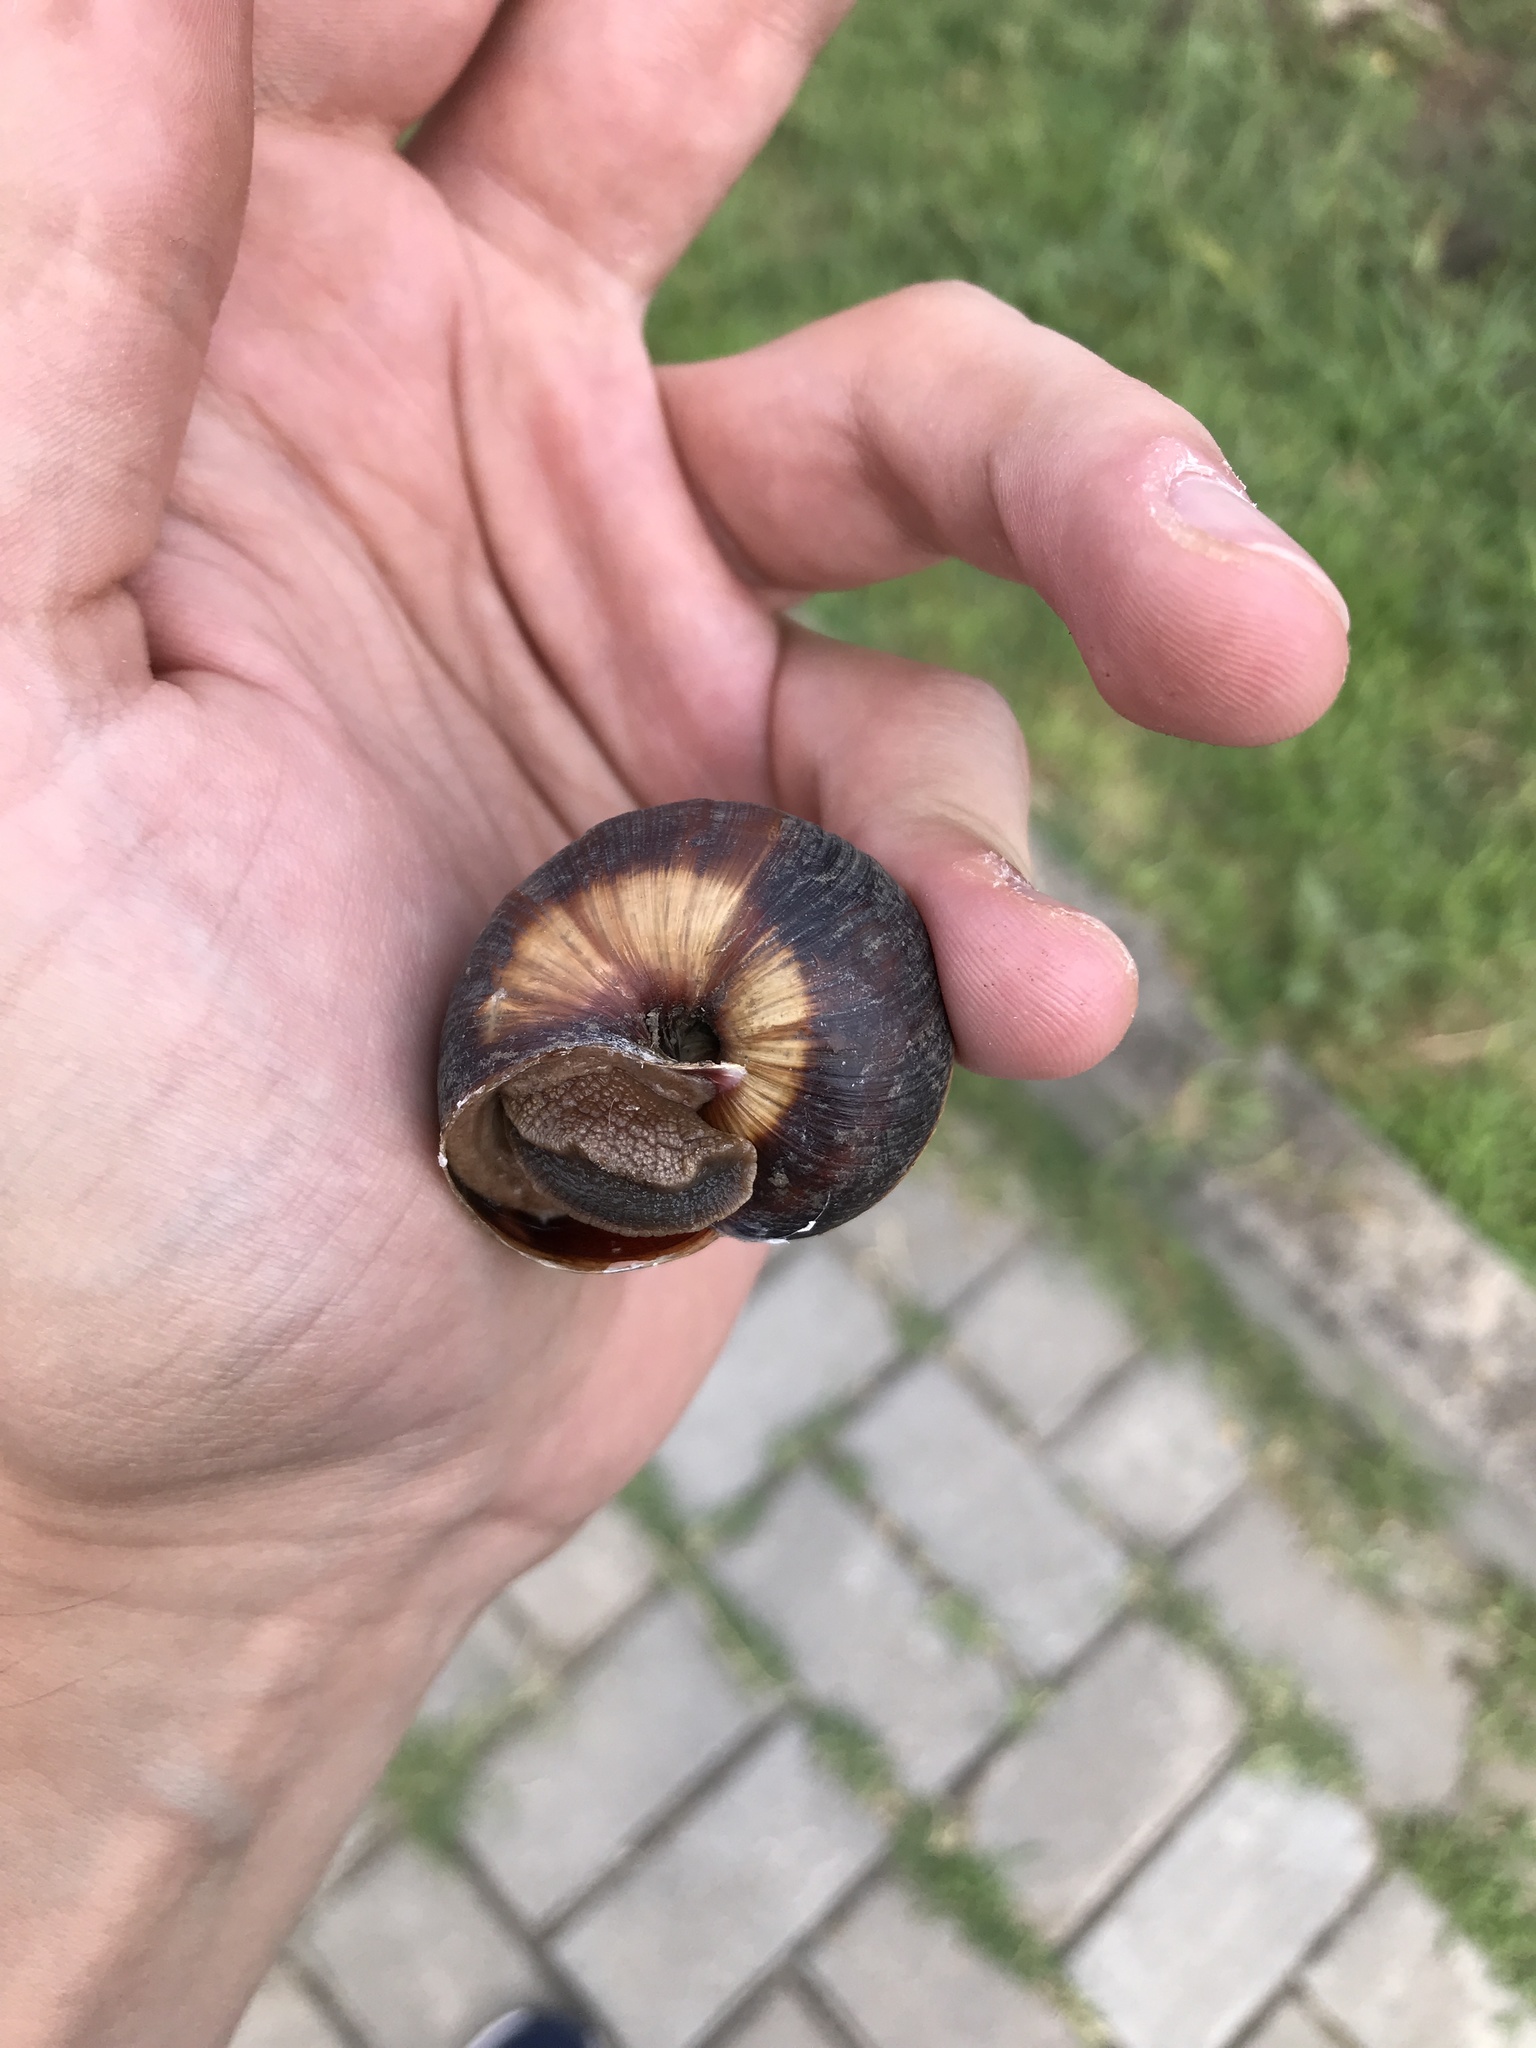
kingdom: Animalia
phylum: Mollusca
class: Gastropoda
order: Stylommatophora
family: Helicidae
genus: Helix
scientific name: Helix lucorum
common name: Turkish snail
